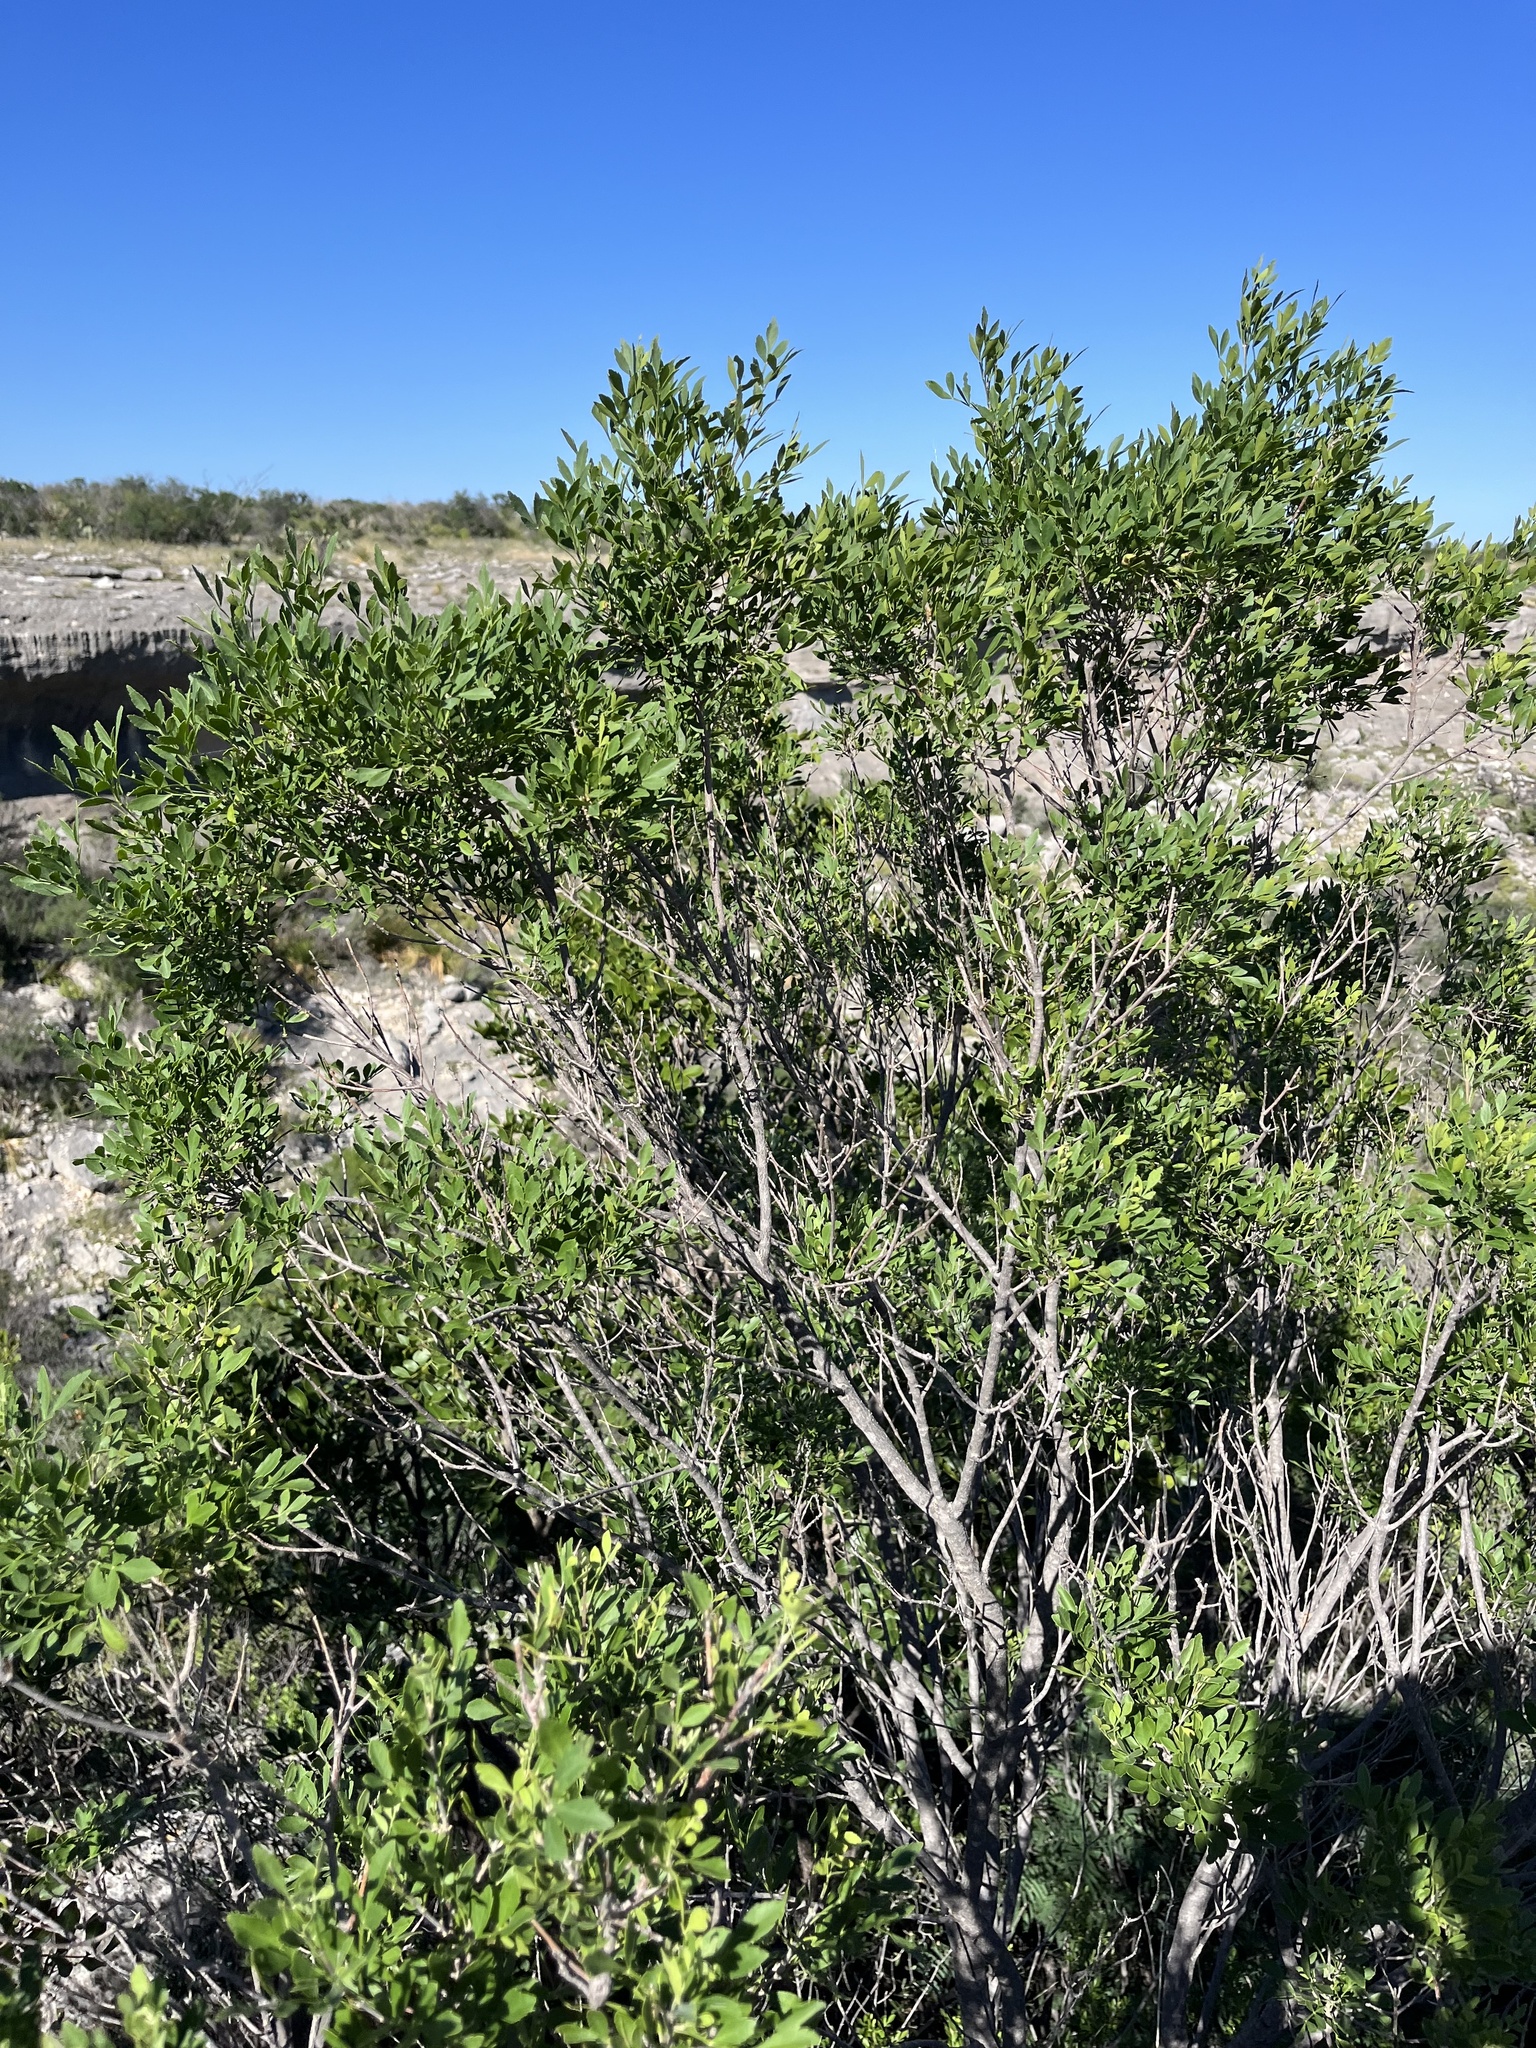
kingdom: Plantae
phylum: Tracheophyta
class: Magnoliopsida
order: Lamiales
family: Oleaceae
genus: Fraxinus
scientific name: Fraxinus greggii
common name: Gregg ash
